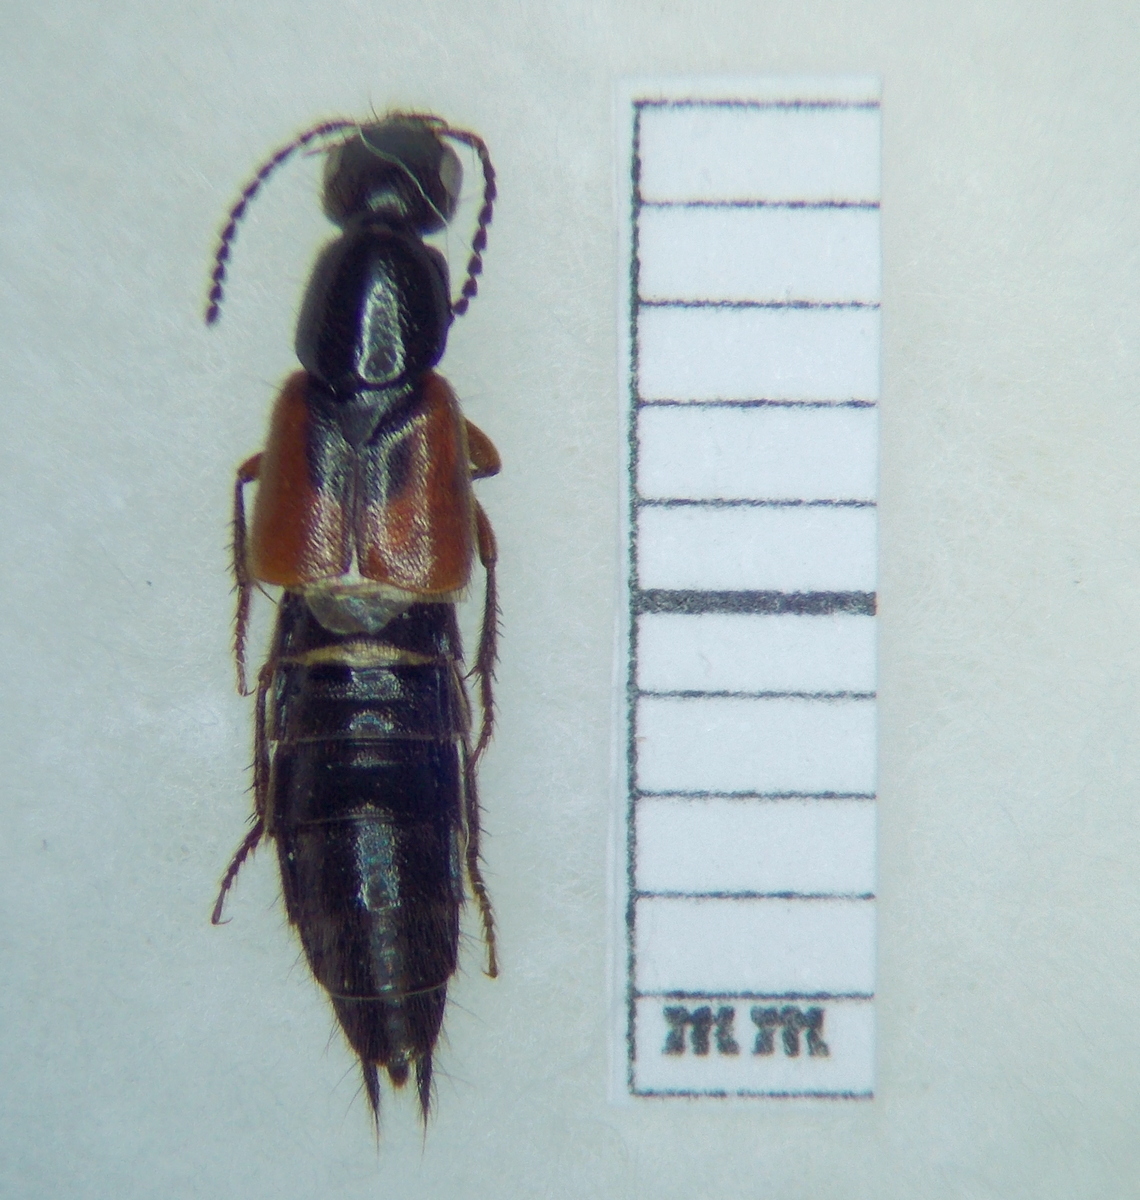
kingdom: Animalia
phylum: Arthropoda
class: Insecta
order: Coleoptera
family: Staphylinidae
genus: Philonthus
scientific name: Philonthus ephippium
